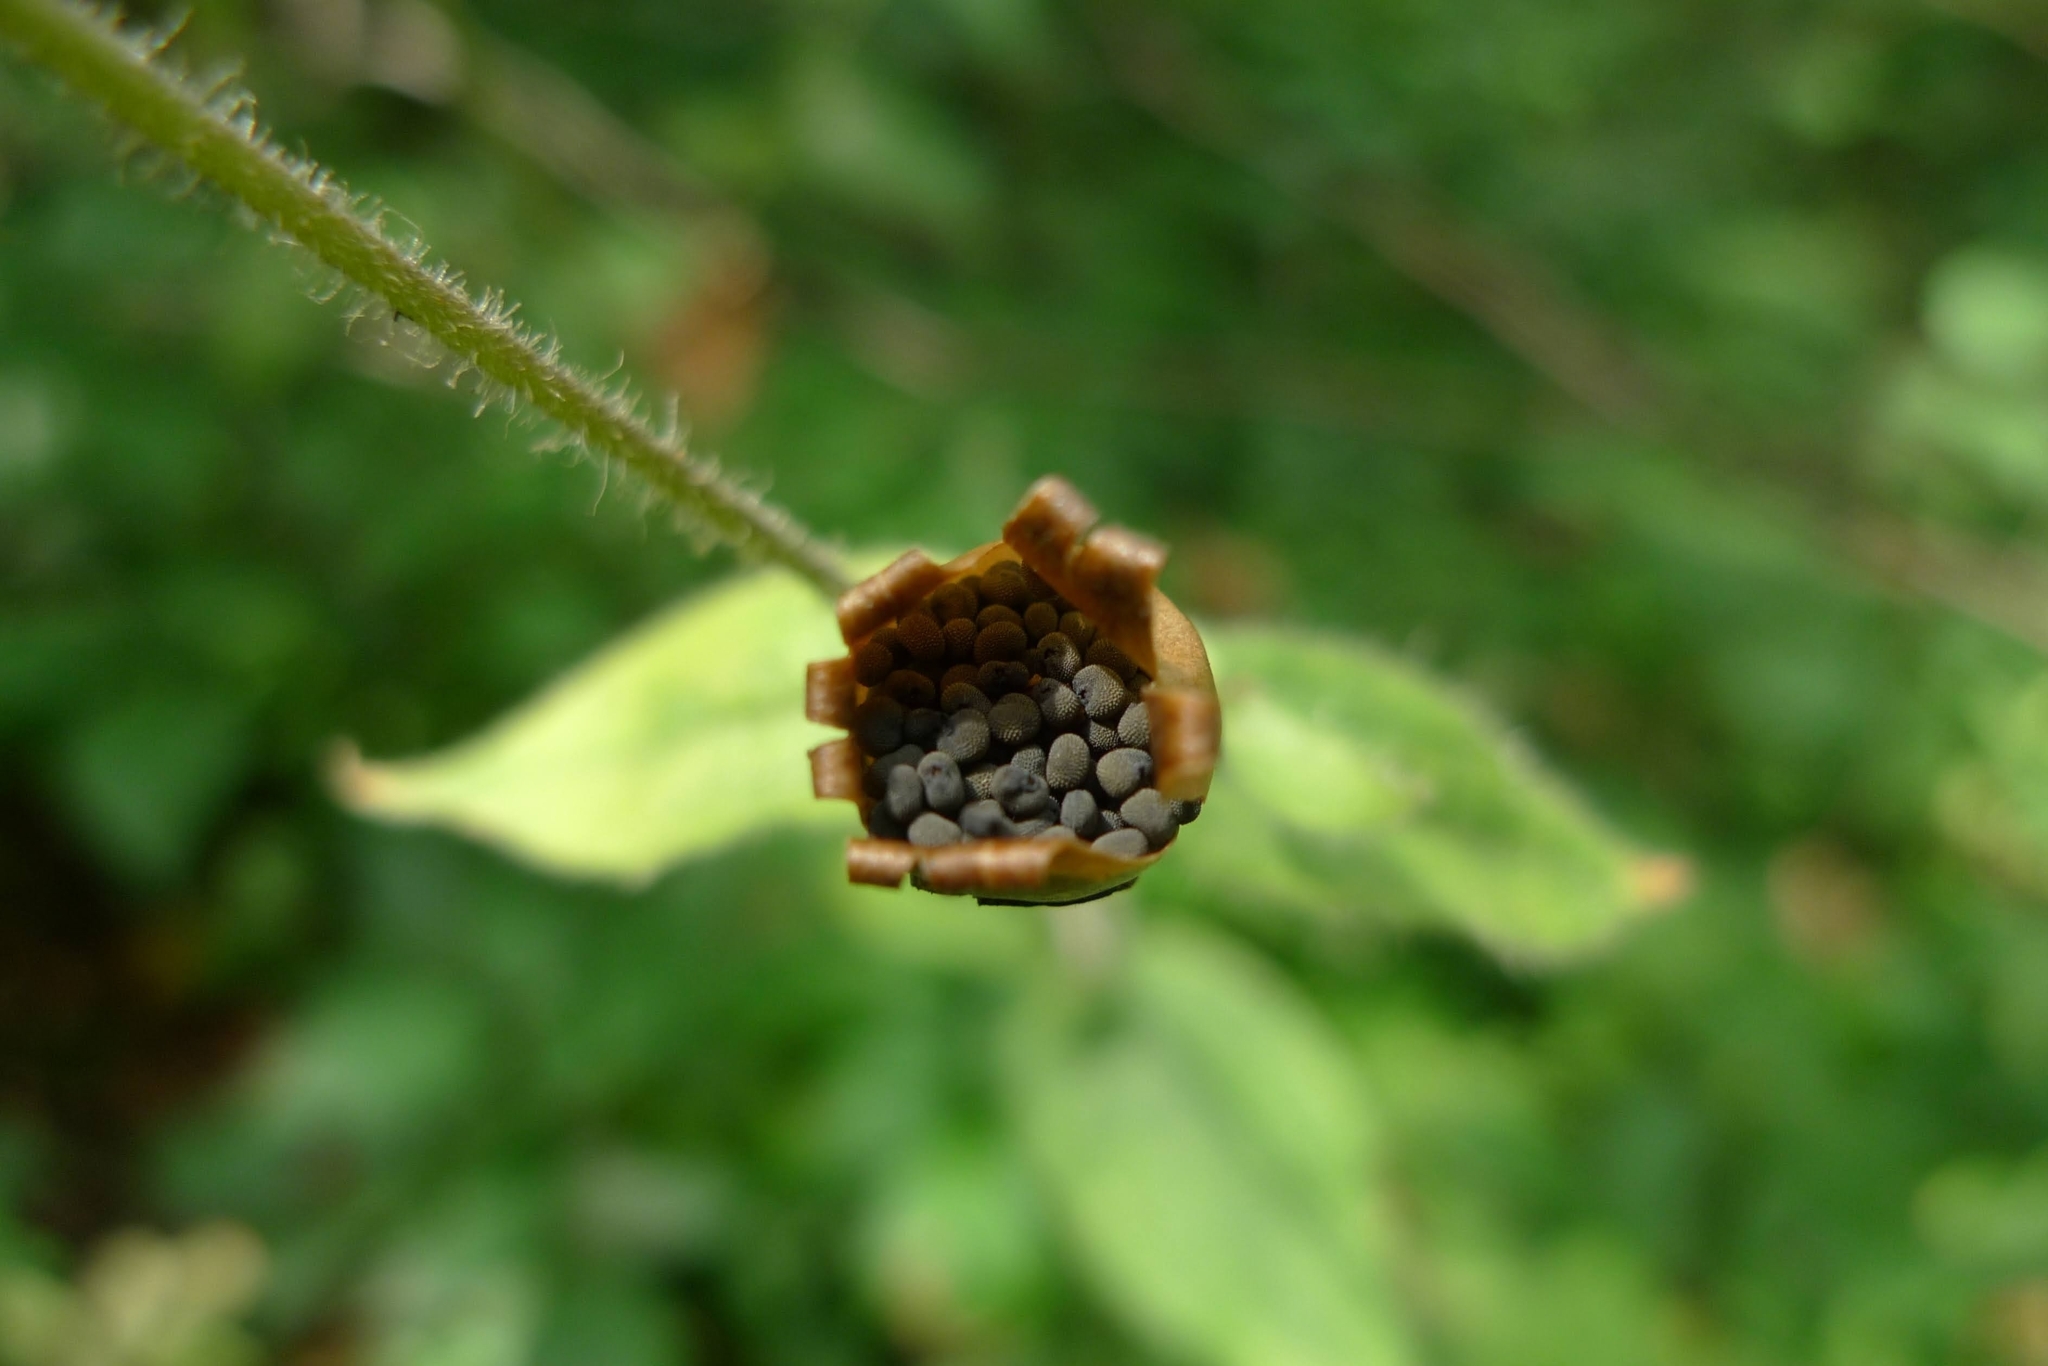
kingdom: Plantae
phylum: Tracheophyta
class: Magnoliopsida
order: Caryophyllales
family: Caryophyllaceae
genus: Silene
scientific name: Silene dioica
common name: Red campion
